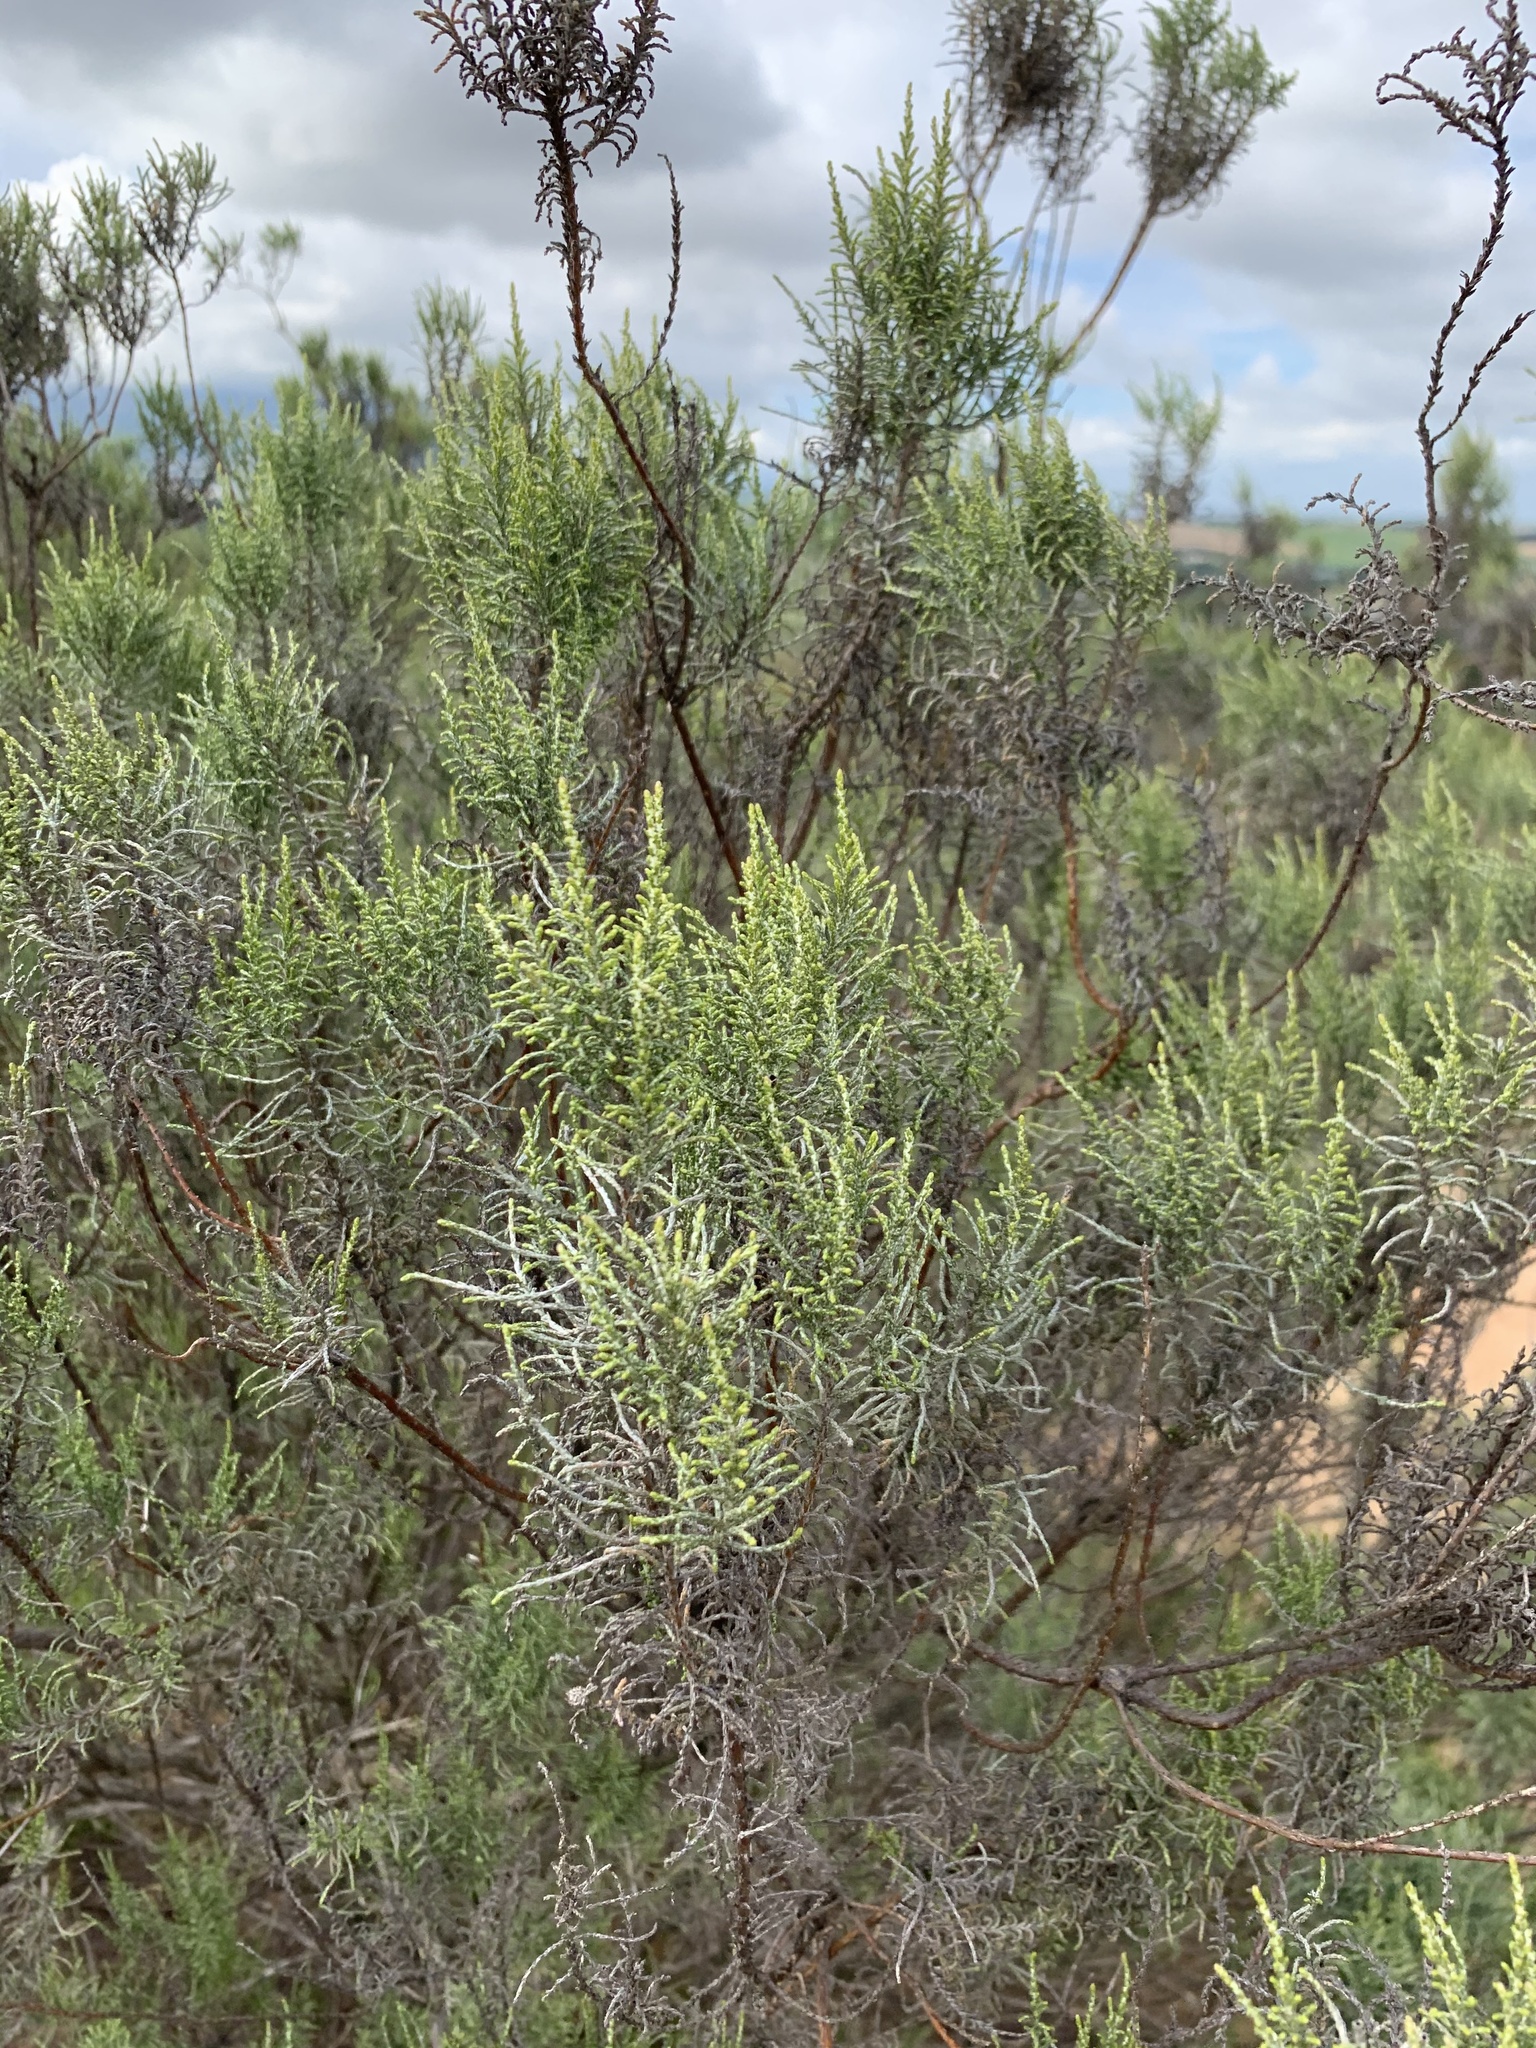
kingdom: Plantae
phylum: Tracheophyta
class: Magnoliopsida
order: Asterales
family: Asteraceae
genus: Dicerothamnus
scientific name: Dicerothamnus rhinocerotis
